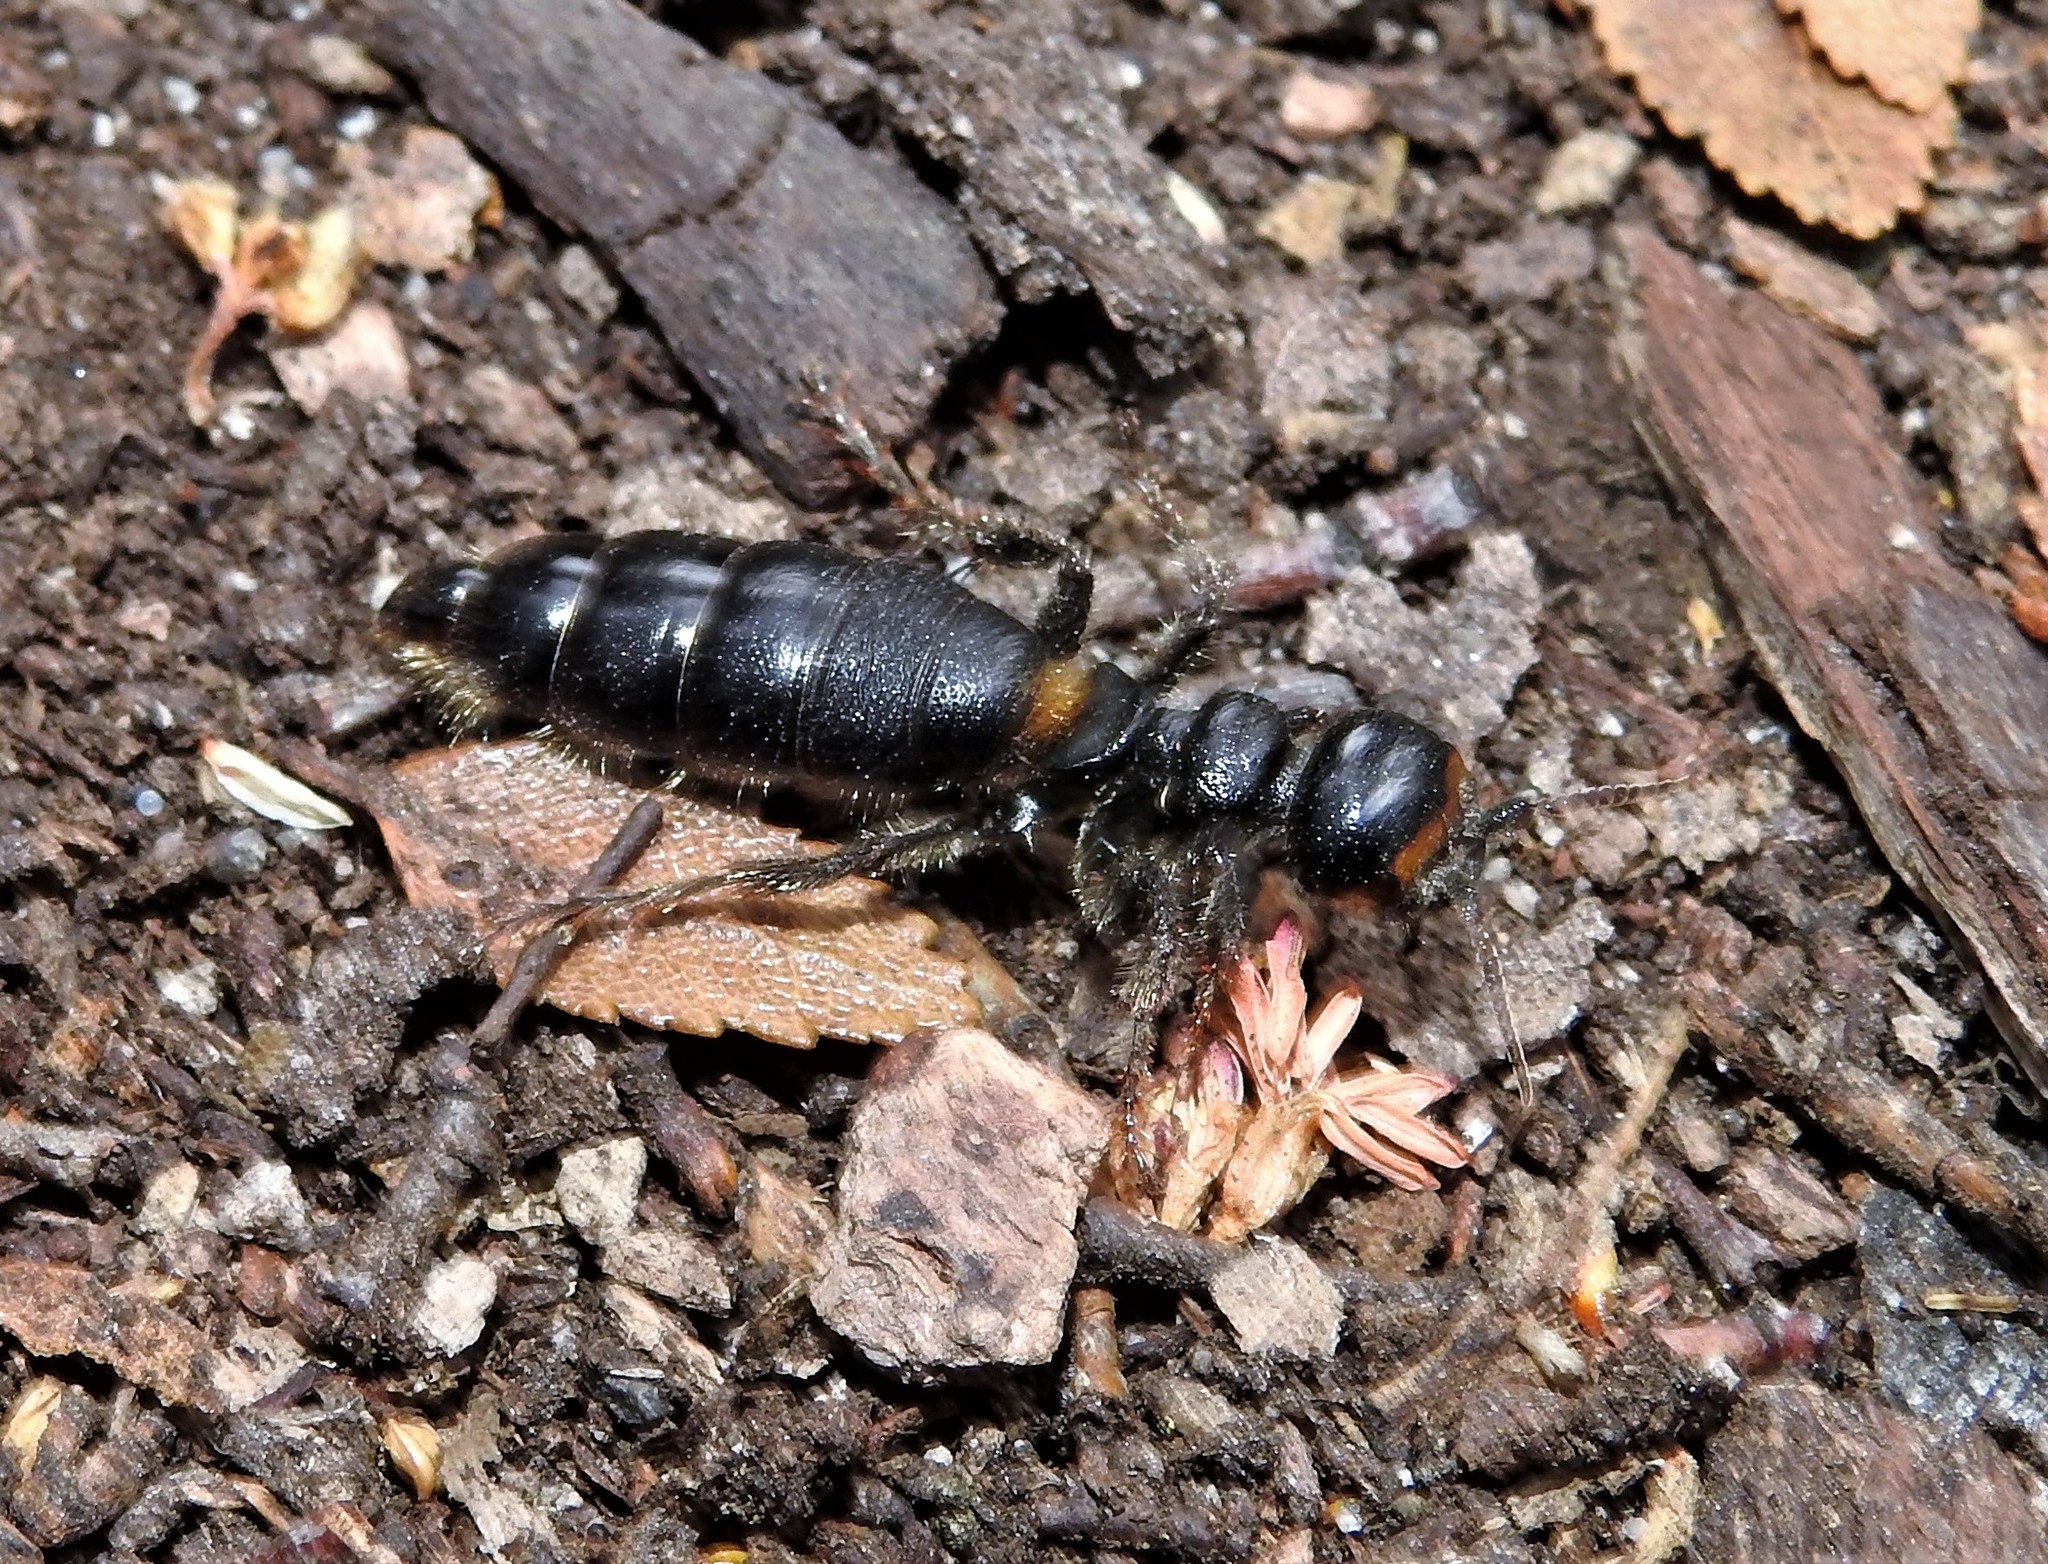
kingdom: Animalia
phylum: Arthropoda
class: Insecta
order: Hymenoptera
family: Tiphiidae
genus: Elaphroptera
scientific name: Elaphroptera
